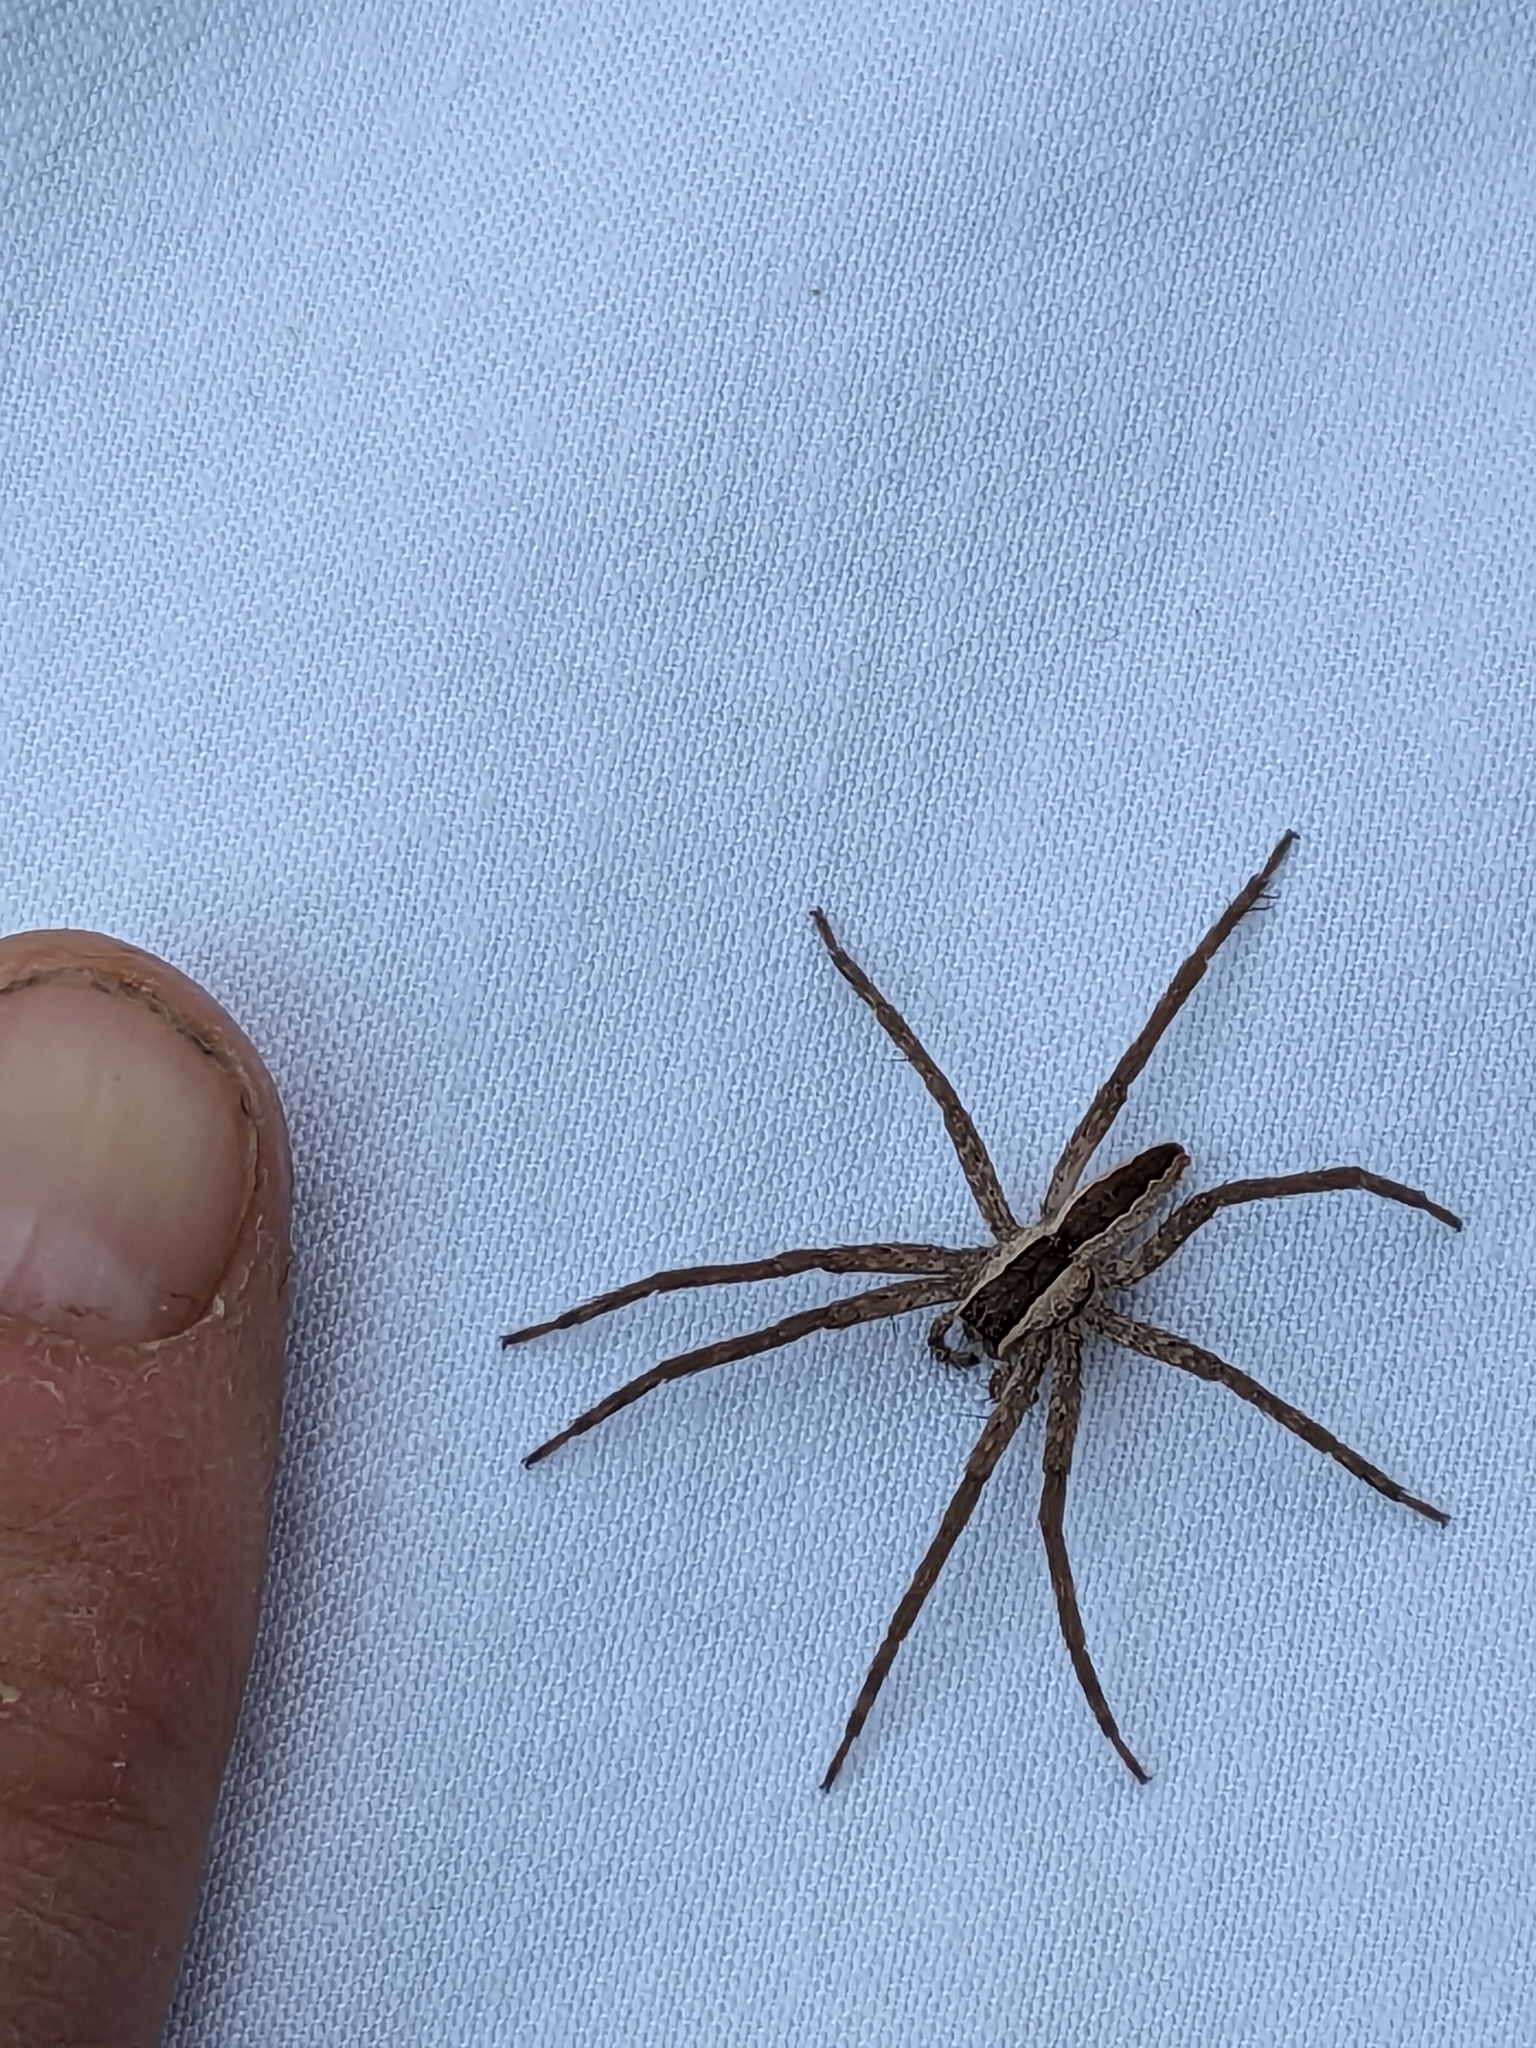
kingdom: Animalia
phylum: Arthropoda
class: Arachnida
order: Araneae
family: Pisauridae
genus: Pisaurina
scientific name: Pisaurina mira
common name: American nursery web spider
